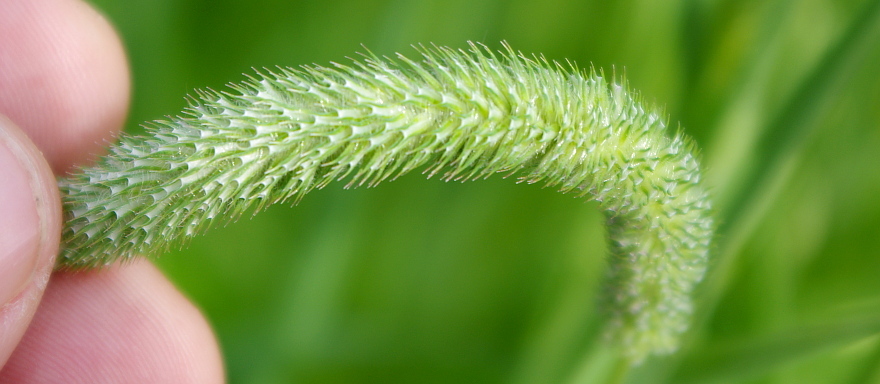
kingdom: Plantae
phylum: Tracheophyta
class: Liliopsida
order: Poales
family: Poaceae
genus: Phleum
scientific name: Phleum pratense
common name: Timothy grass
